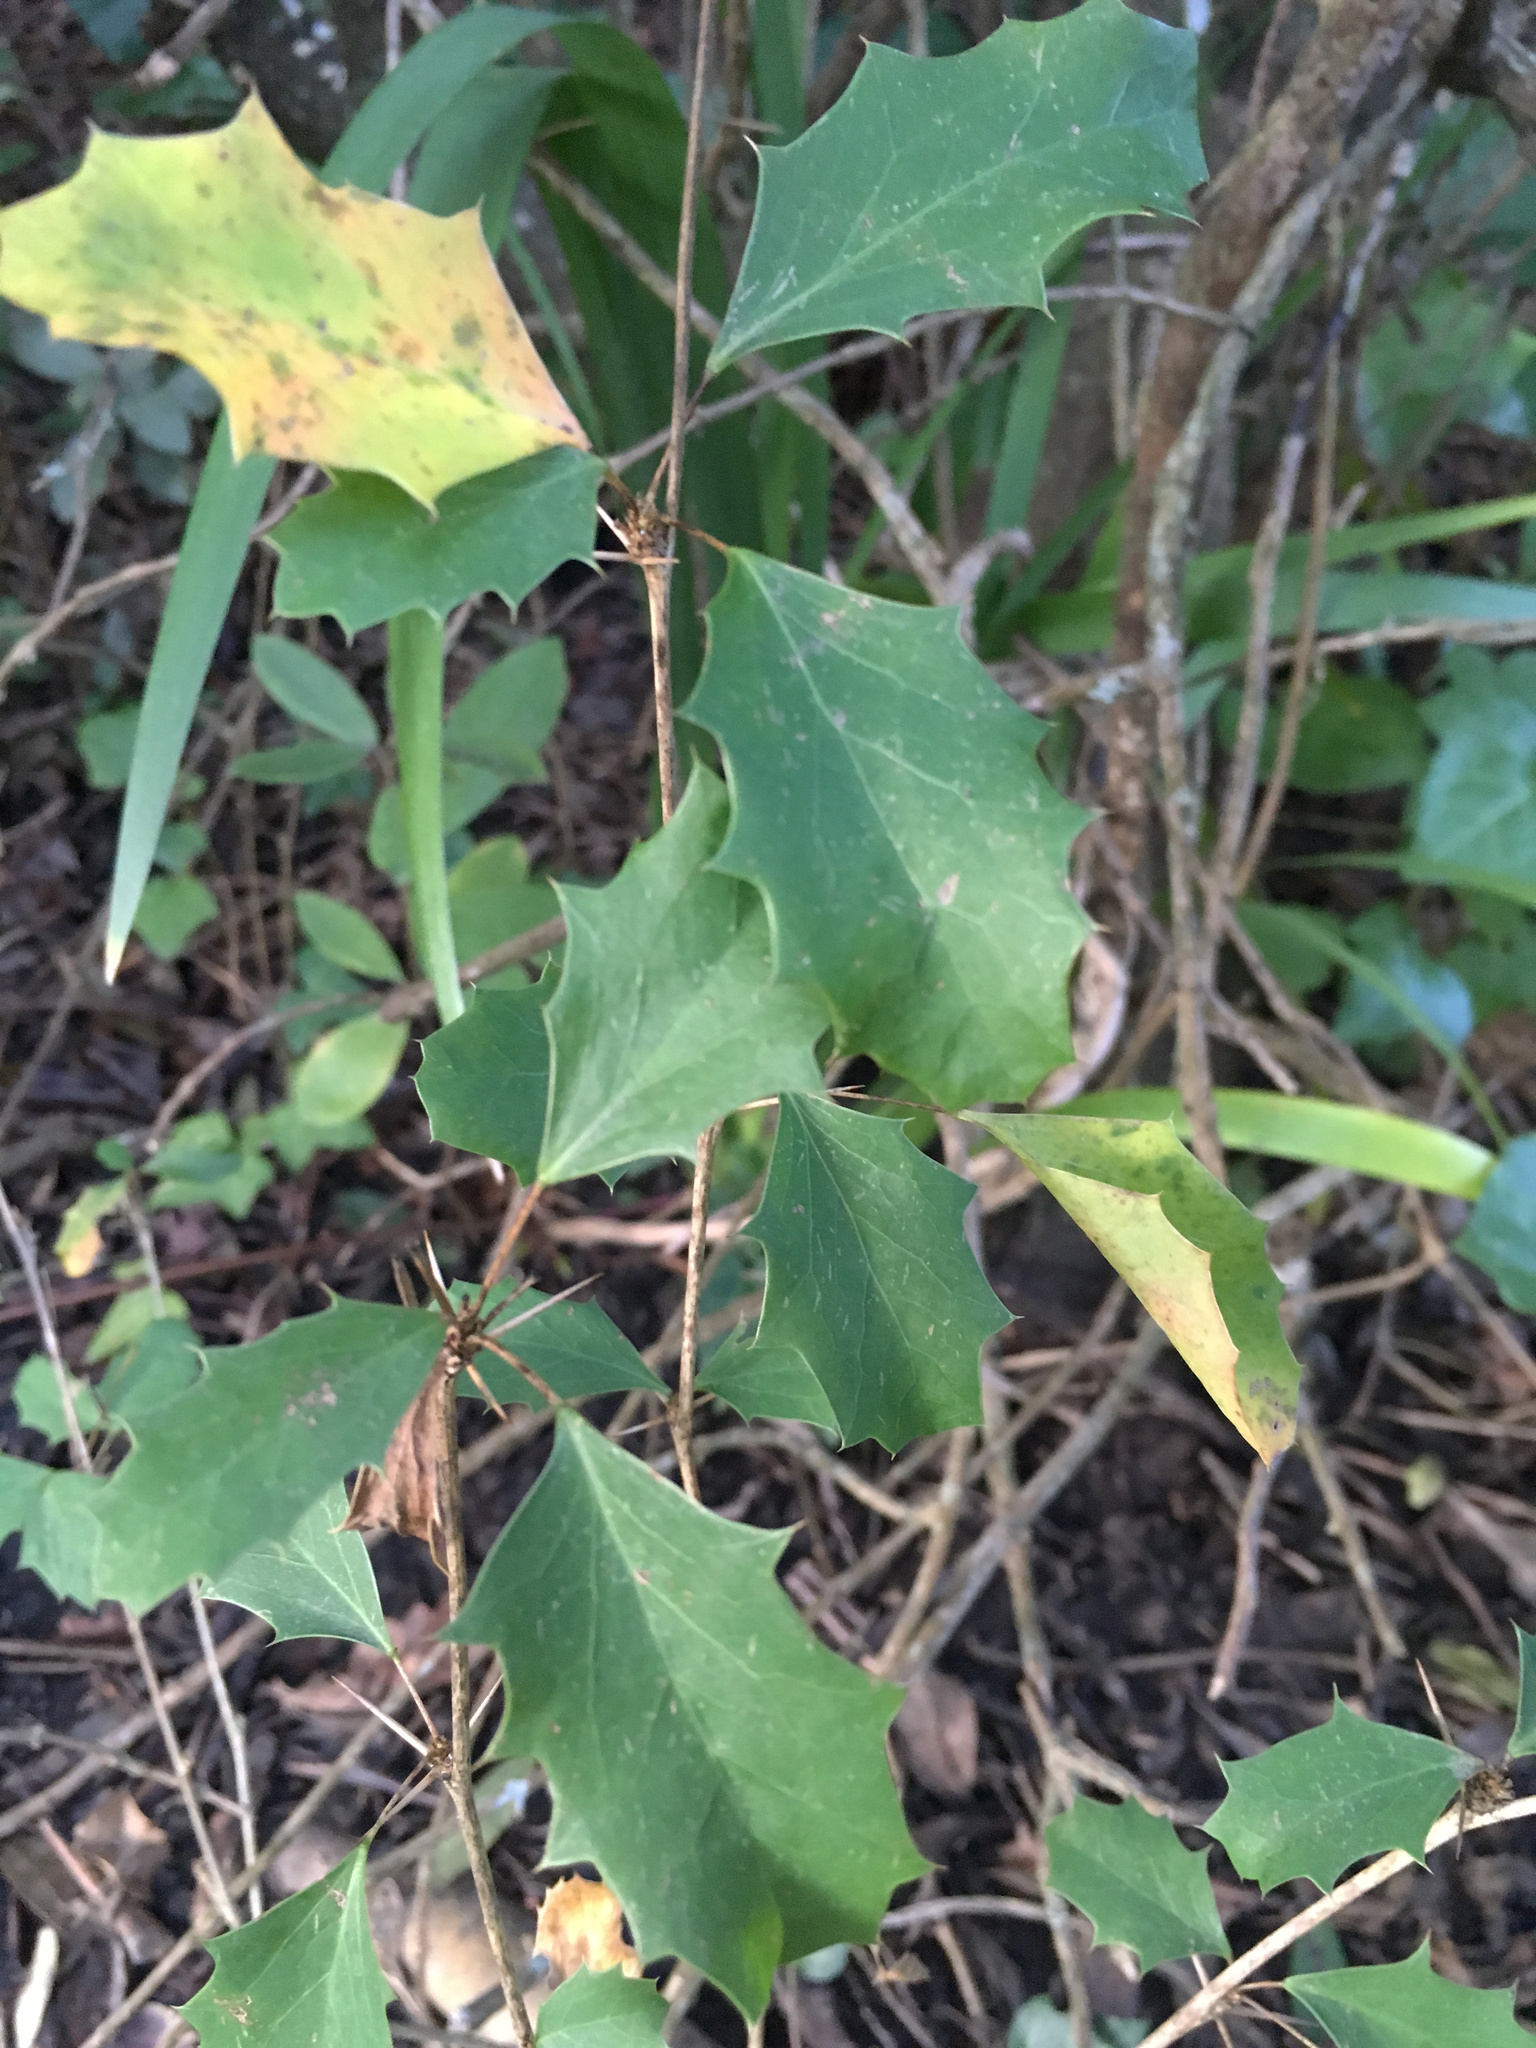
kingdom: Plantae
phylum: Tracheophyta
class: Magnoliopsida
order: Ranunculales
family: Berberidaceae
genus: Berberis
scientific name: Berberis glaucocarpa
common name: Great barberry
